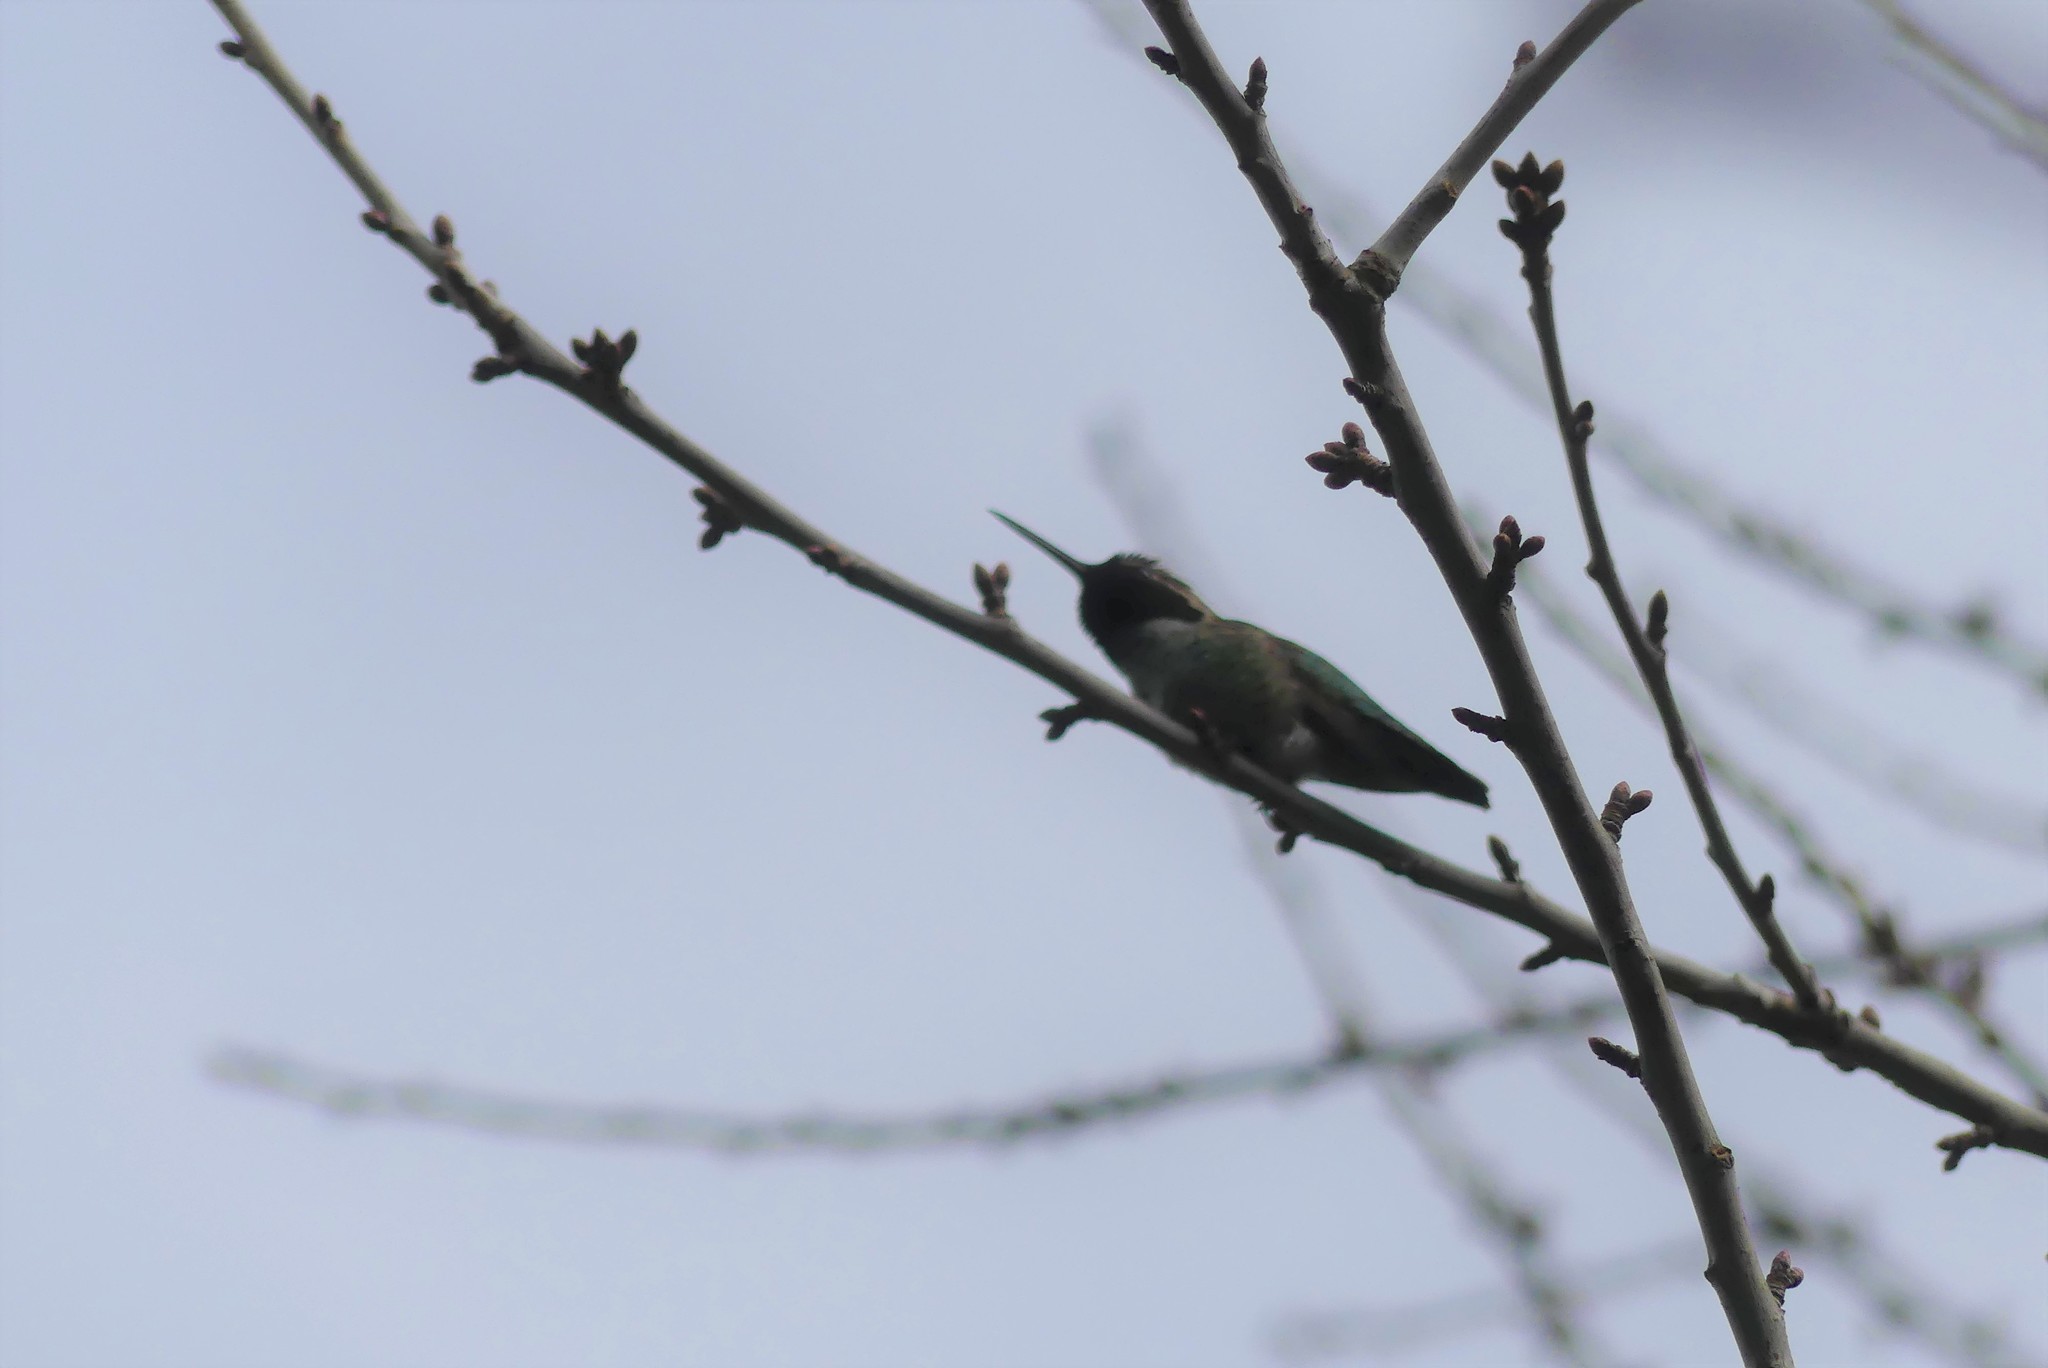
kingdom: Animalia
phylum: Chordata
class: Aves
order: Apodiformes
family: Trochilidae
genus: Calypte
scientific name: Calypte anna
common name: Anna's hummingbird
